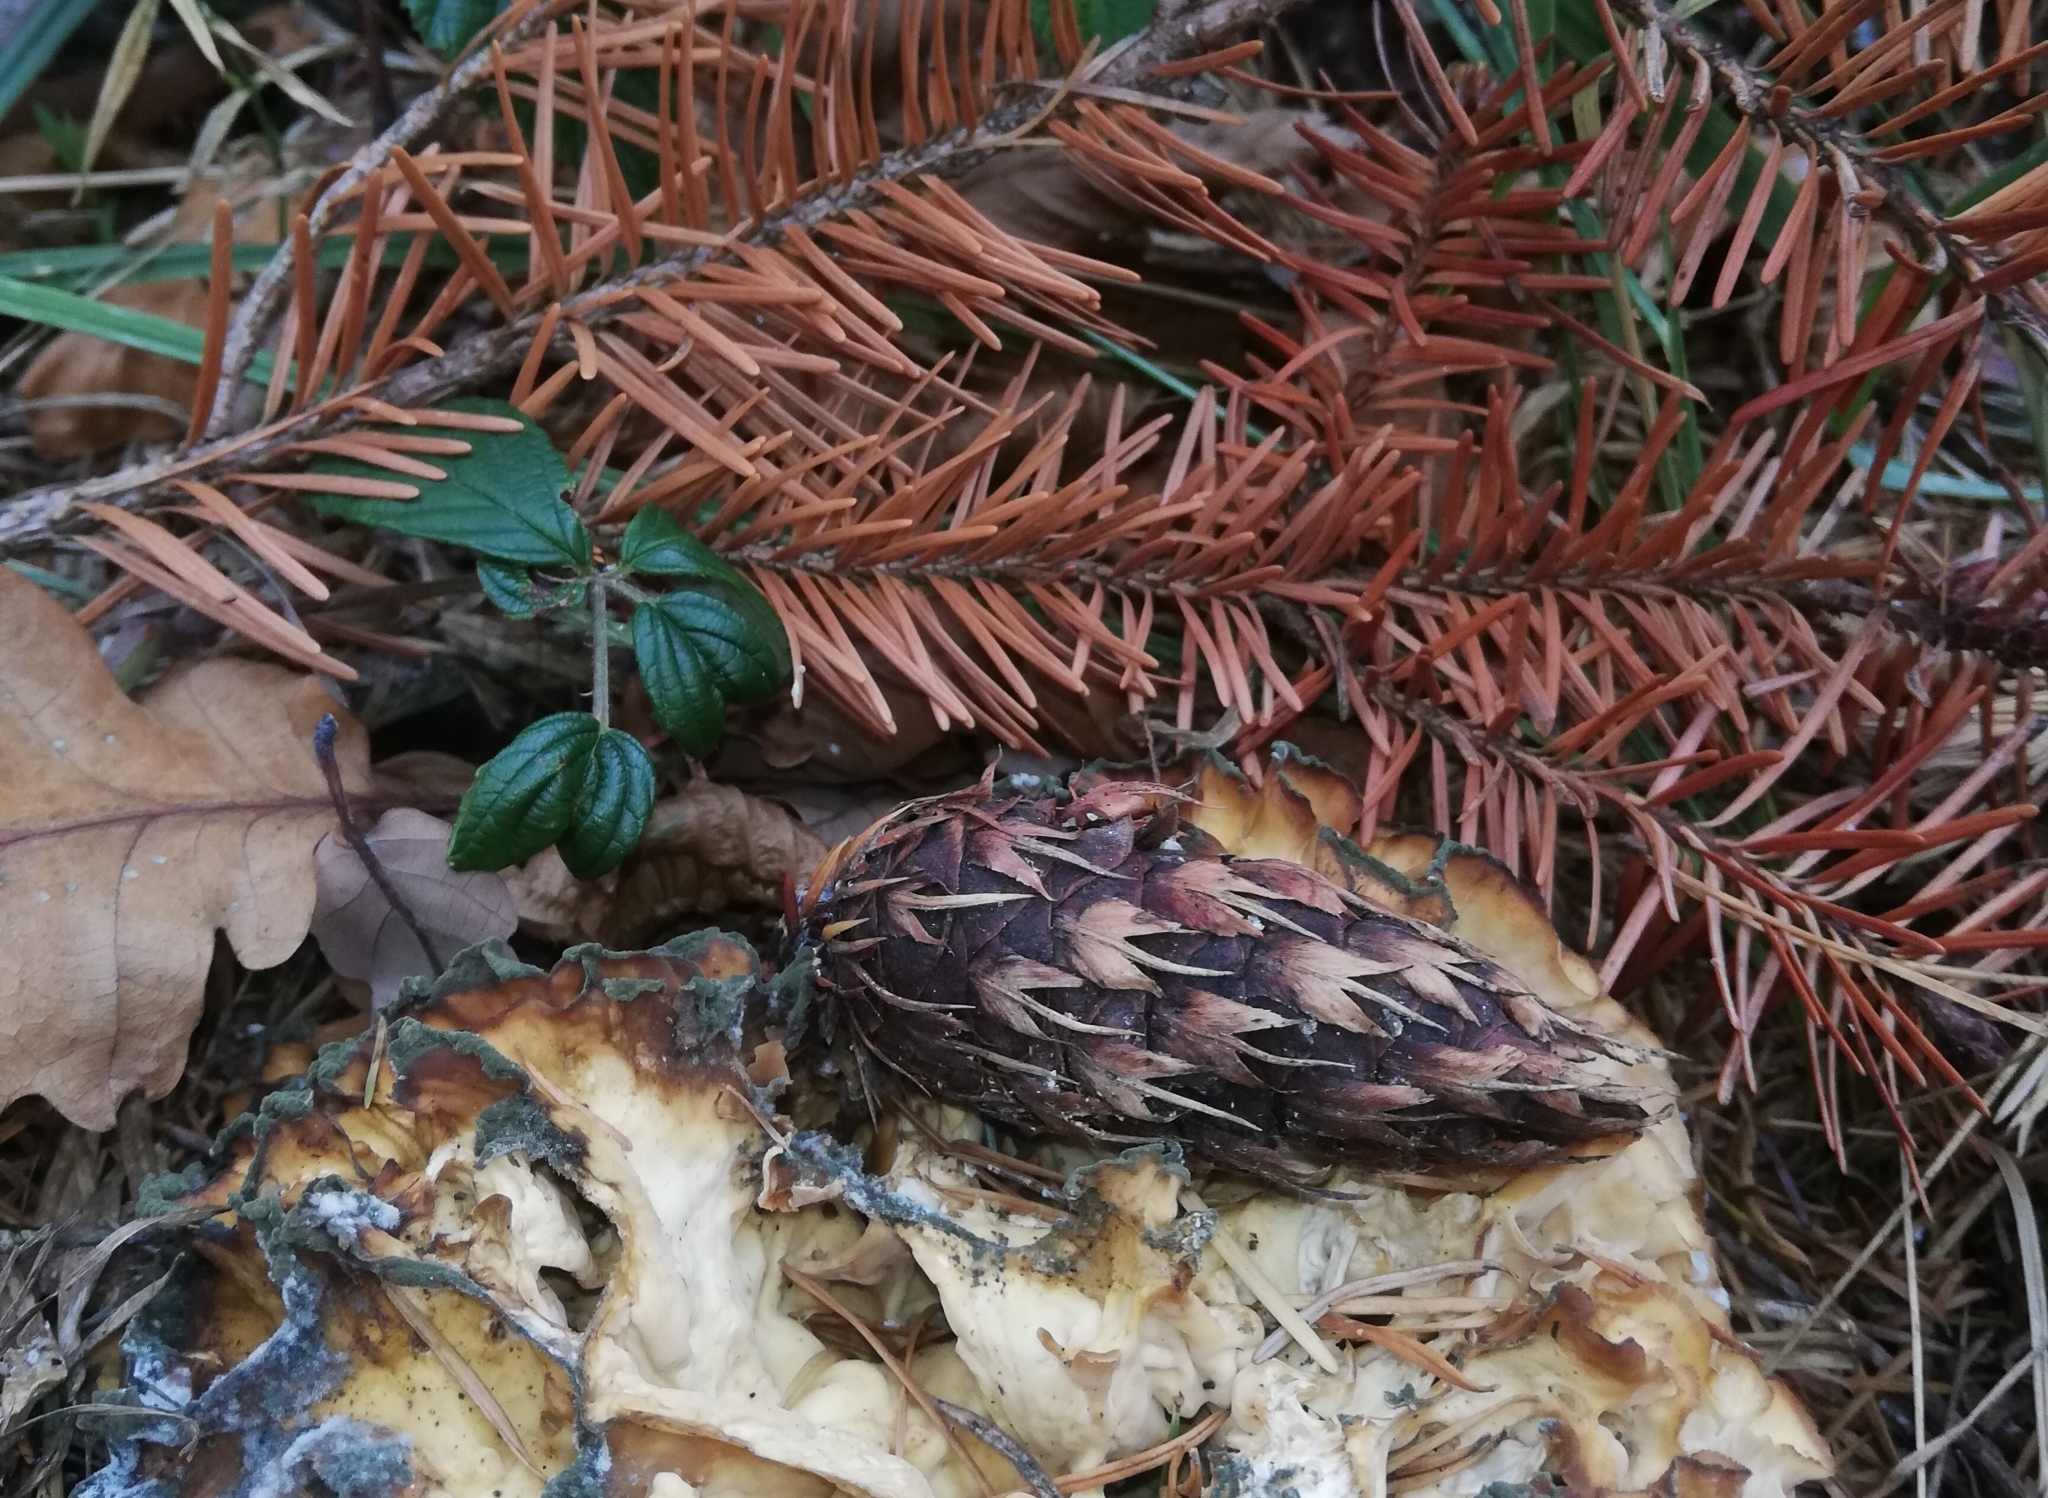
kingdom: Fungi
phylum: Basidiomycota
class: Agaricomycetes
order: Polyporales
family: Sparassidaceae
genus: Sparassis
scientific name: Sparassis crispa
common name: Brain fungus
